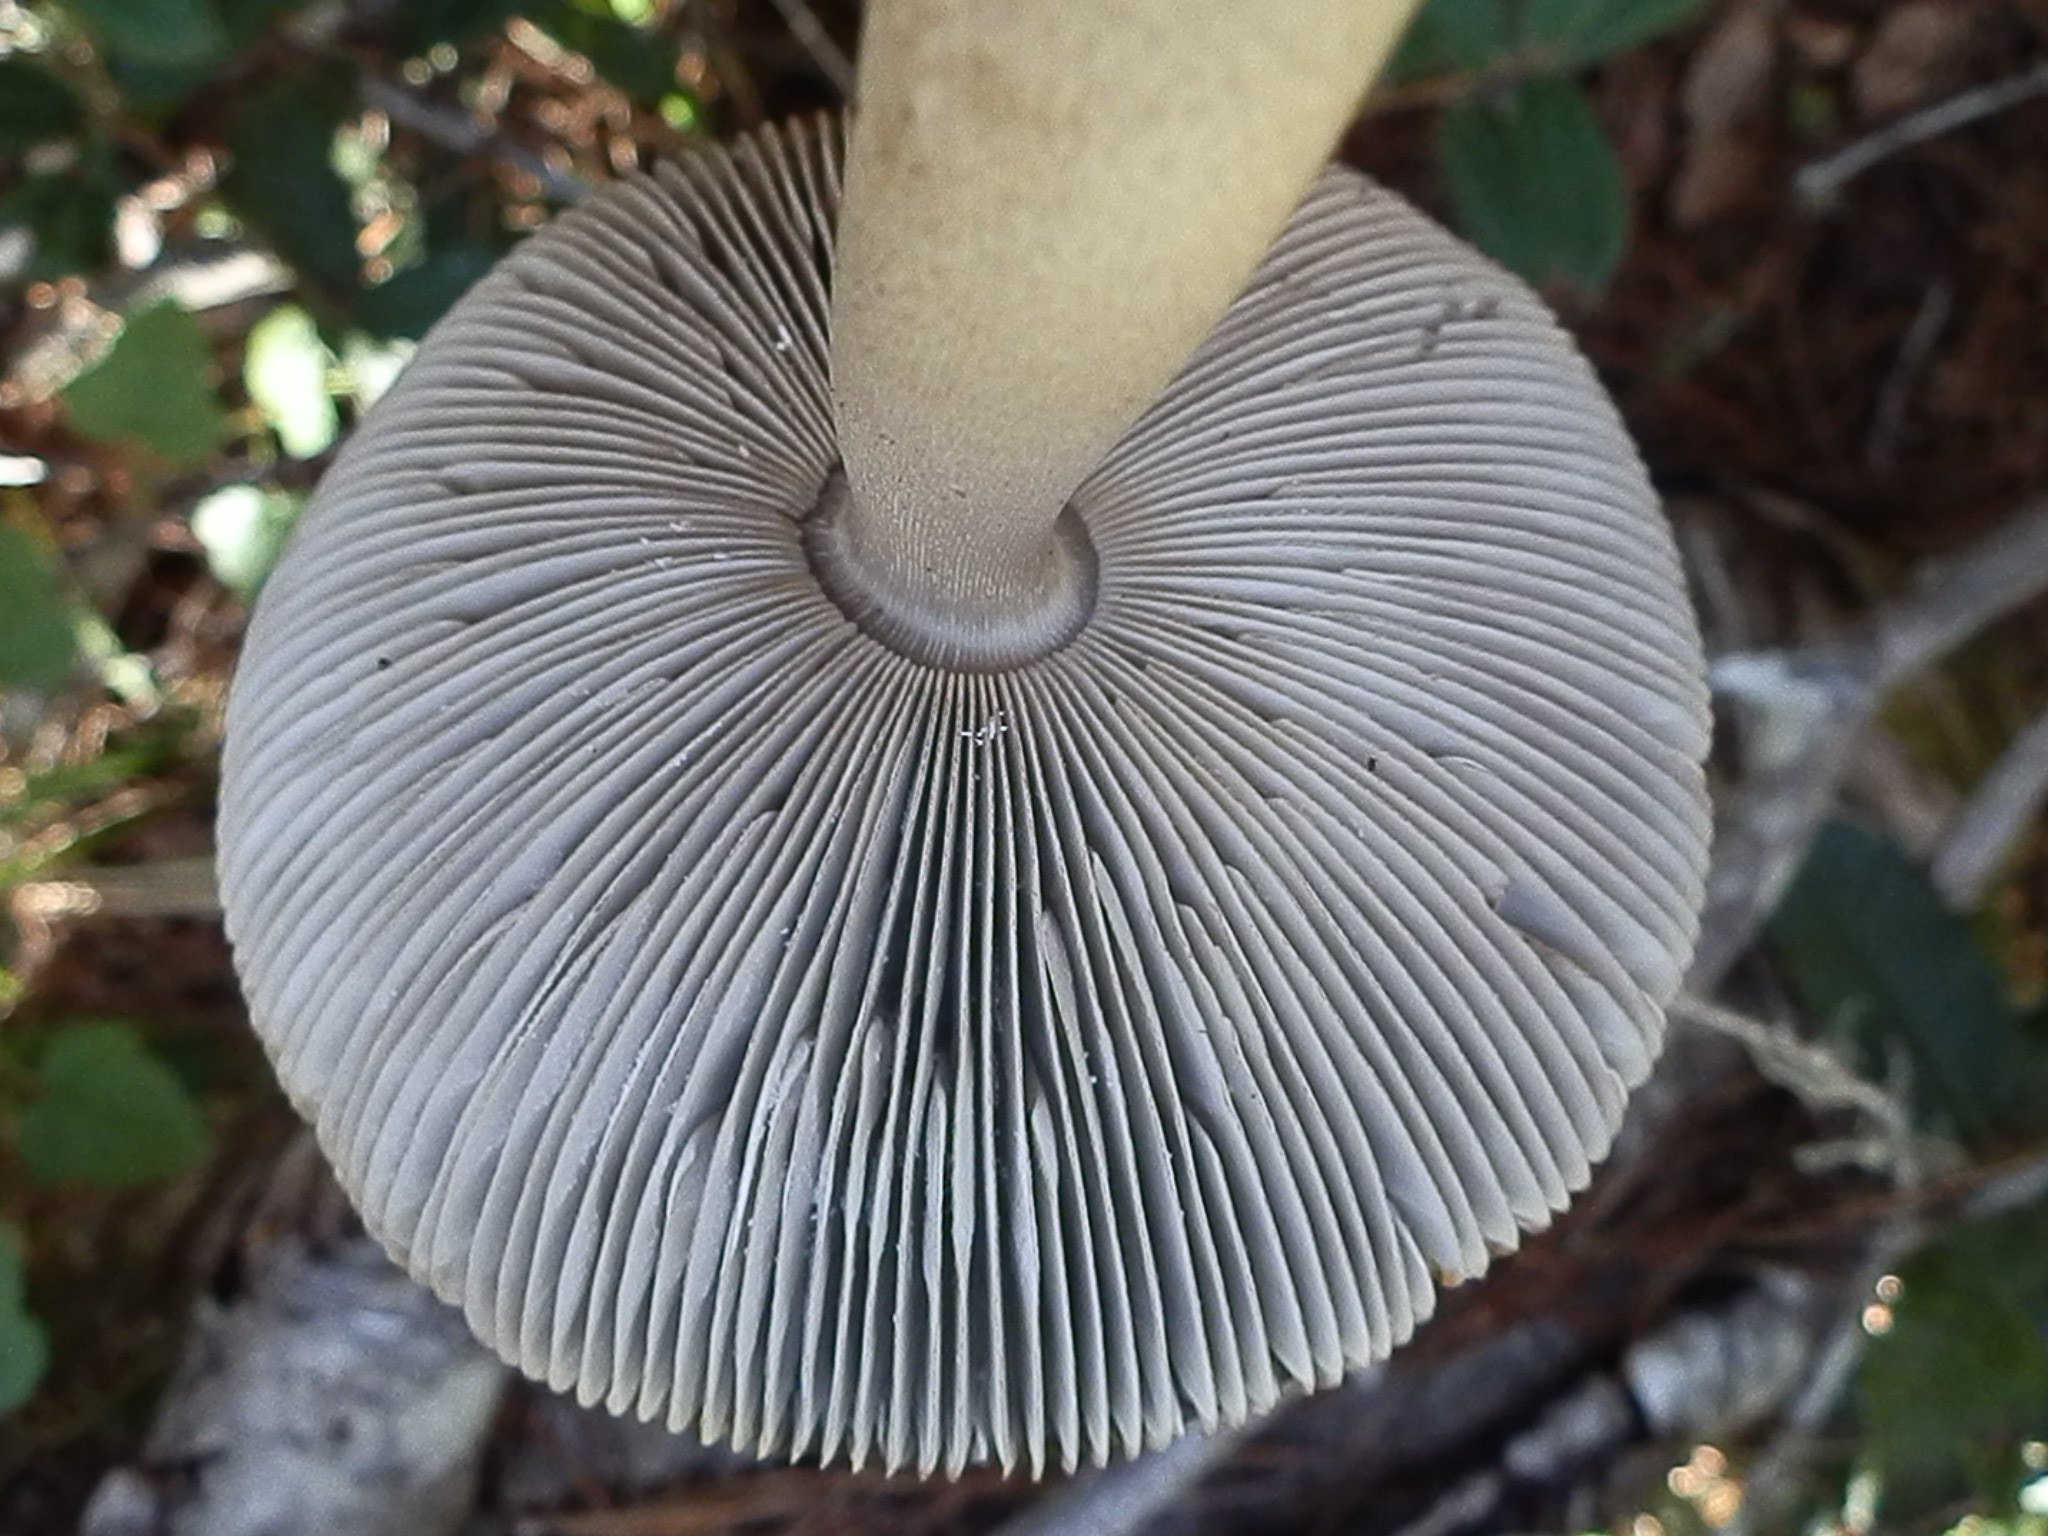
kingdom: Fungi
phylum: Basidiomycota
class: Agaricomycetes
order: Agaricales
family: Amanitaceae
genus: Amanita
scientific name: Amanita pachycolea
